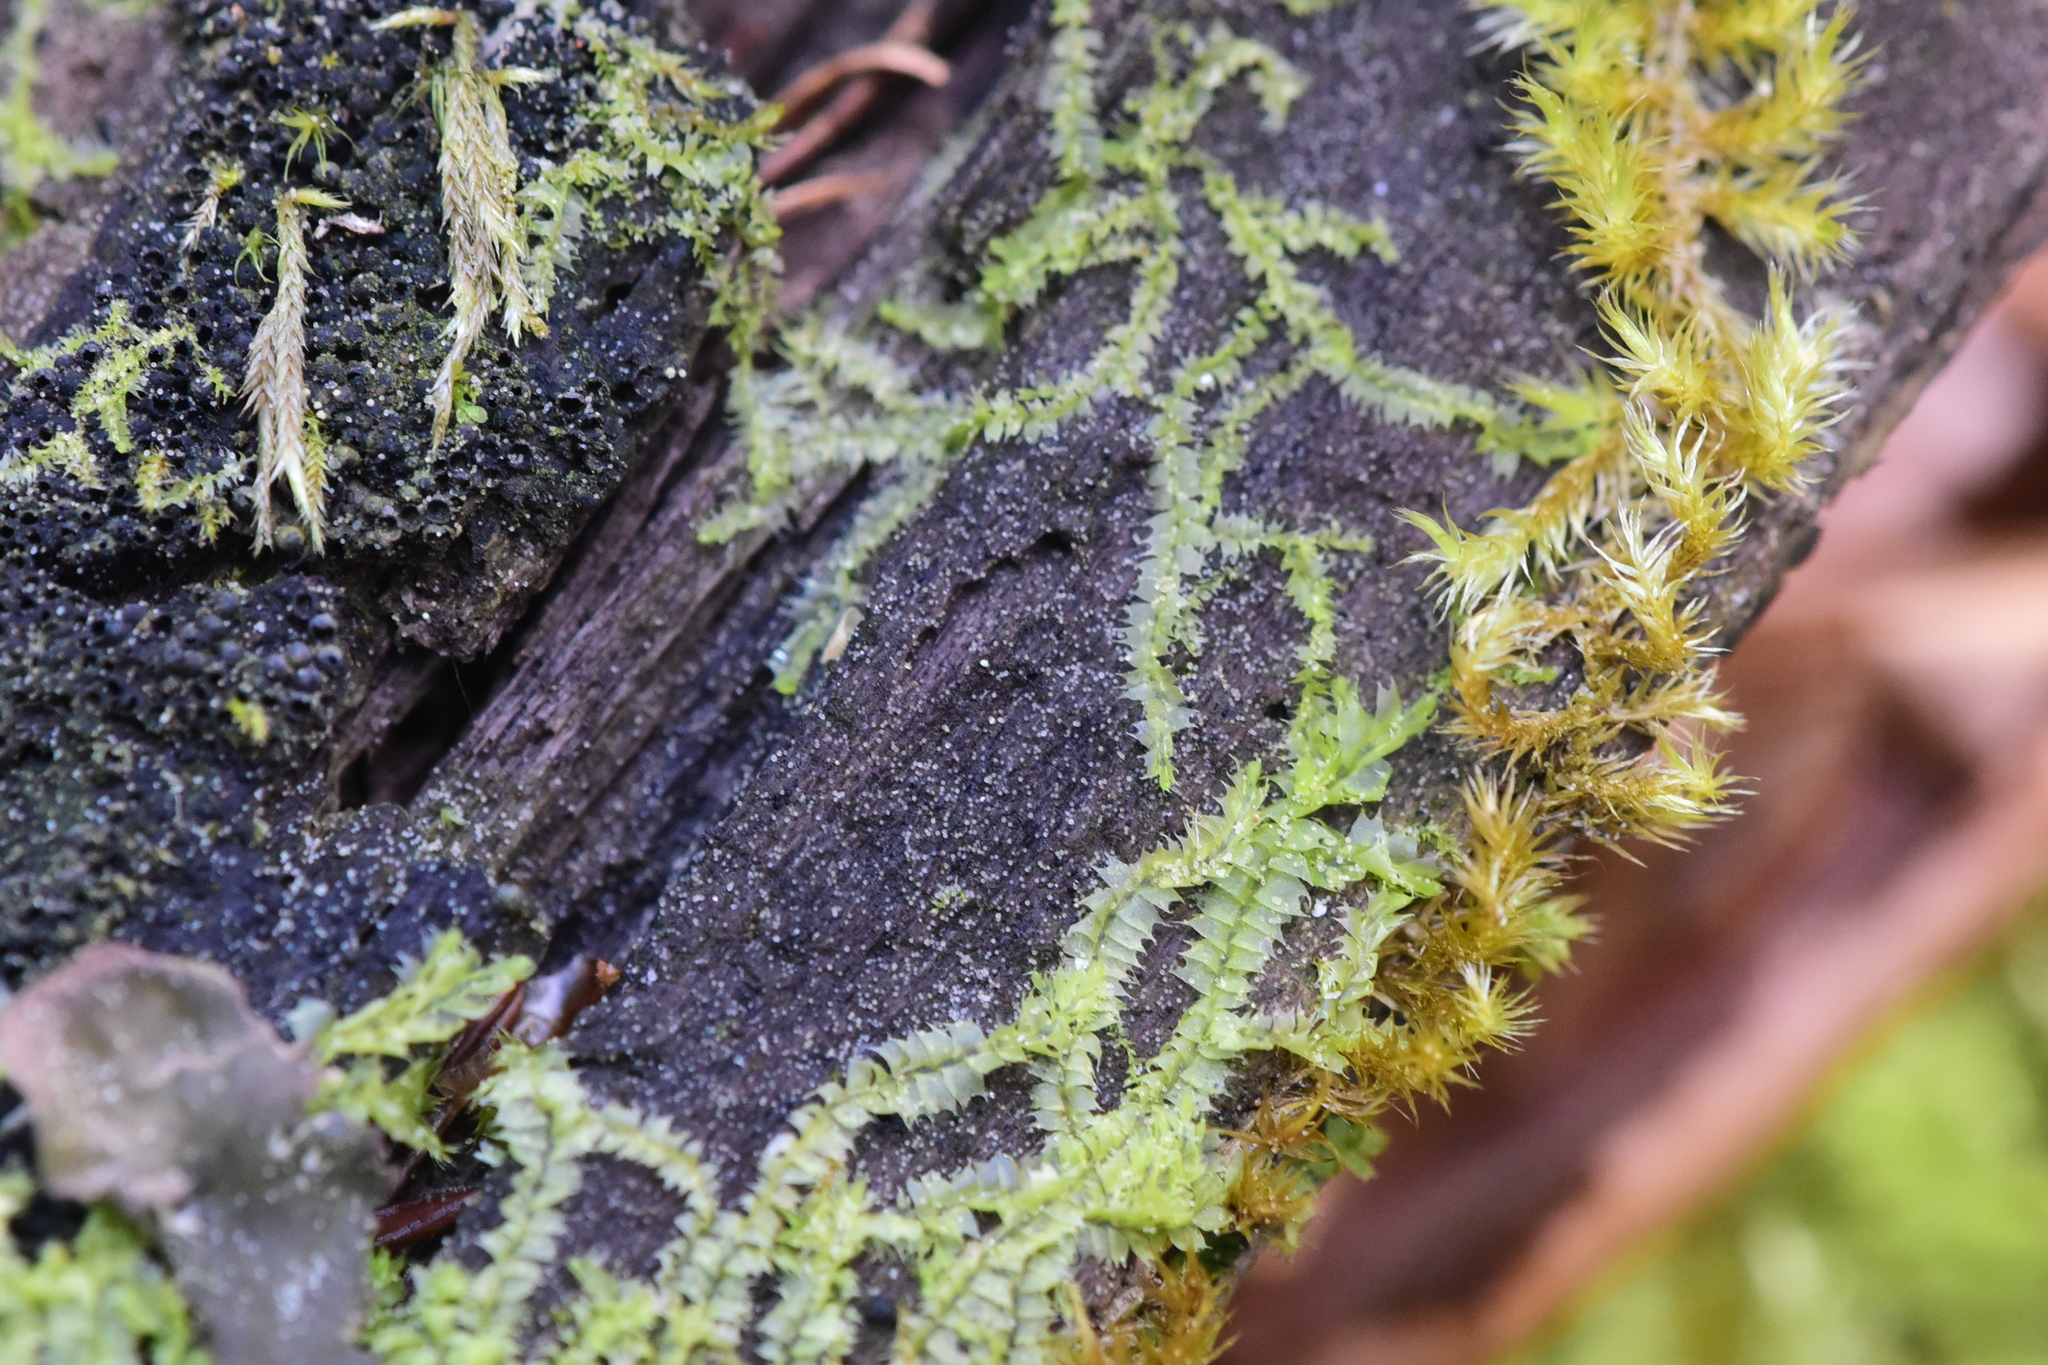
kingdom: Plantae
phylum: Marchantiophyta
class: Jungermanniopsida
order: Jungermanniales
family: Lophocoleaceae
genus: Lophocolea
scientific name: Lophocolea bidentata
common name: Bifid crestwort
